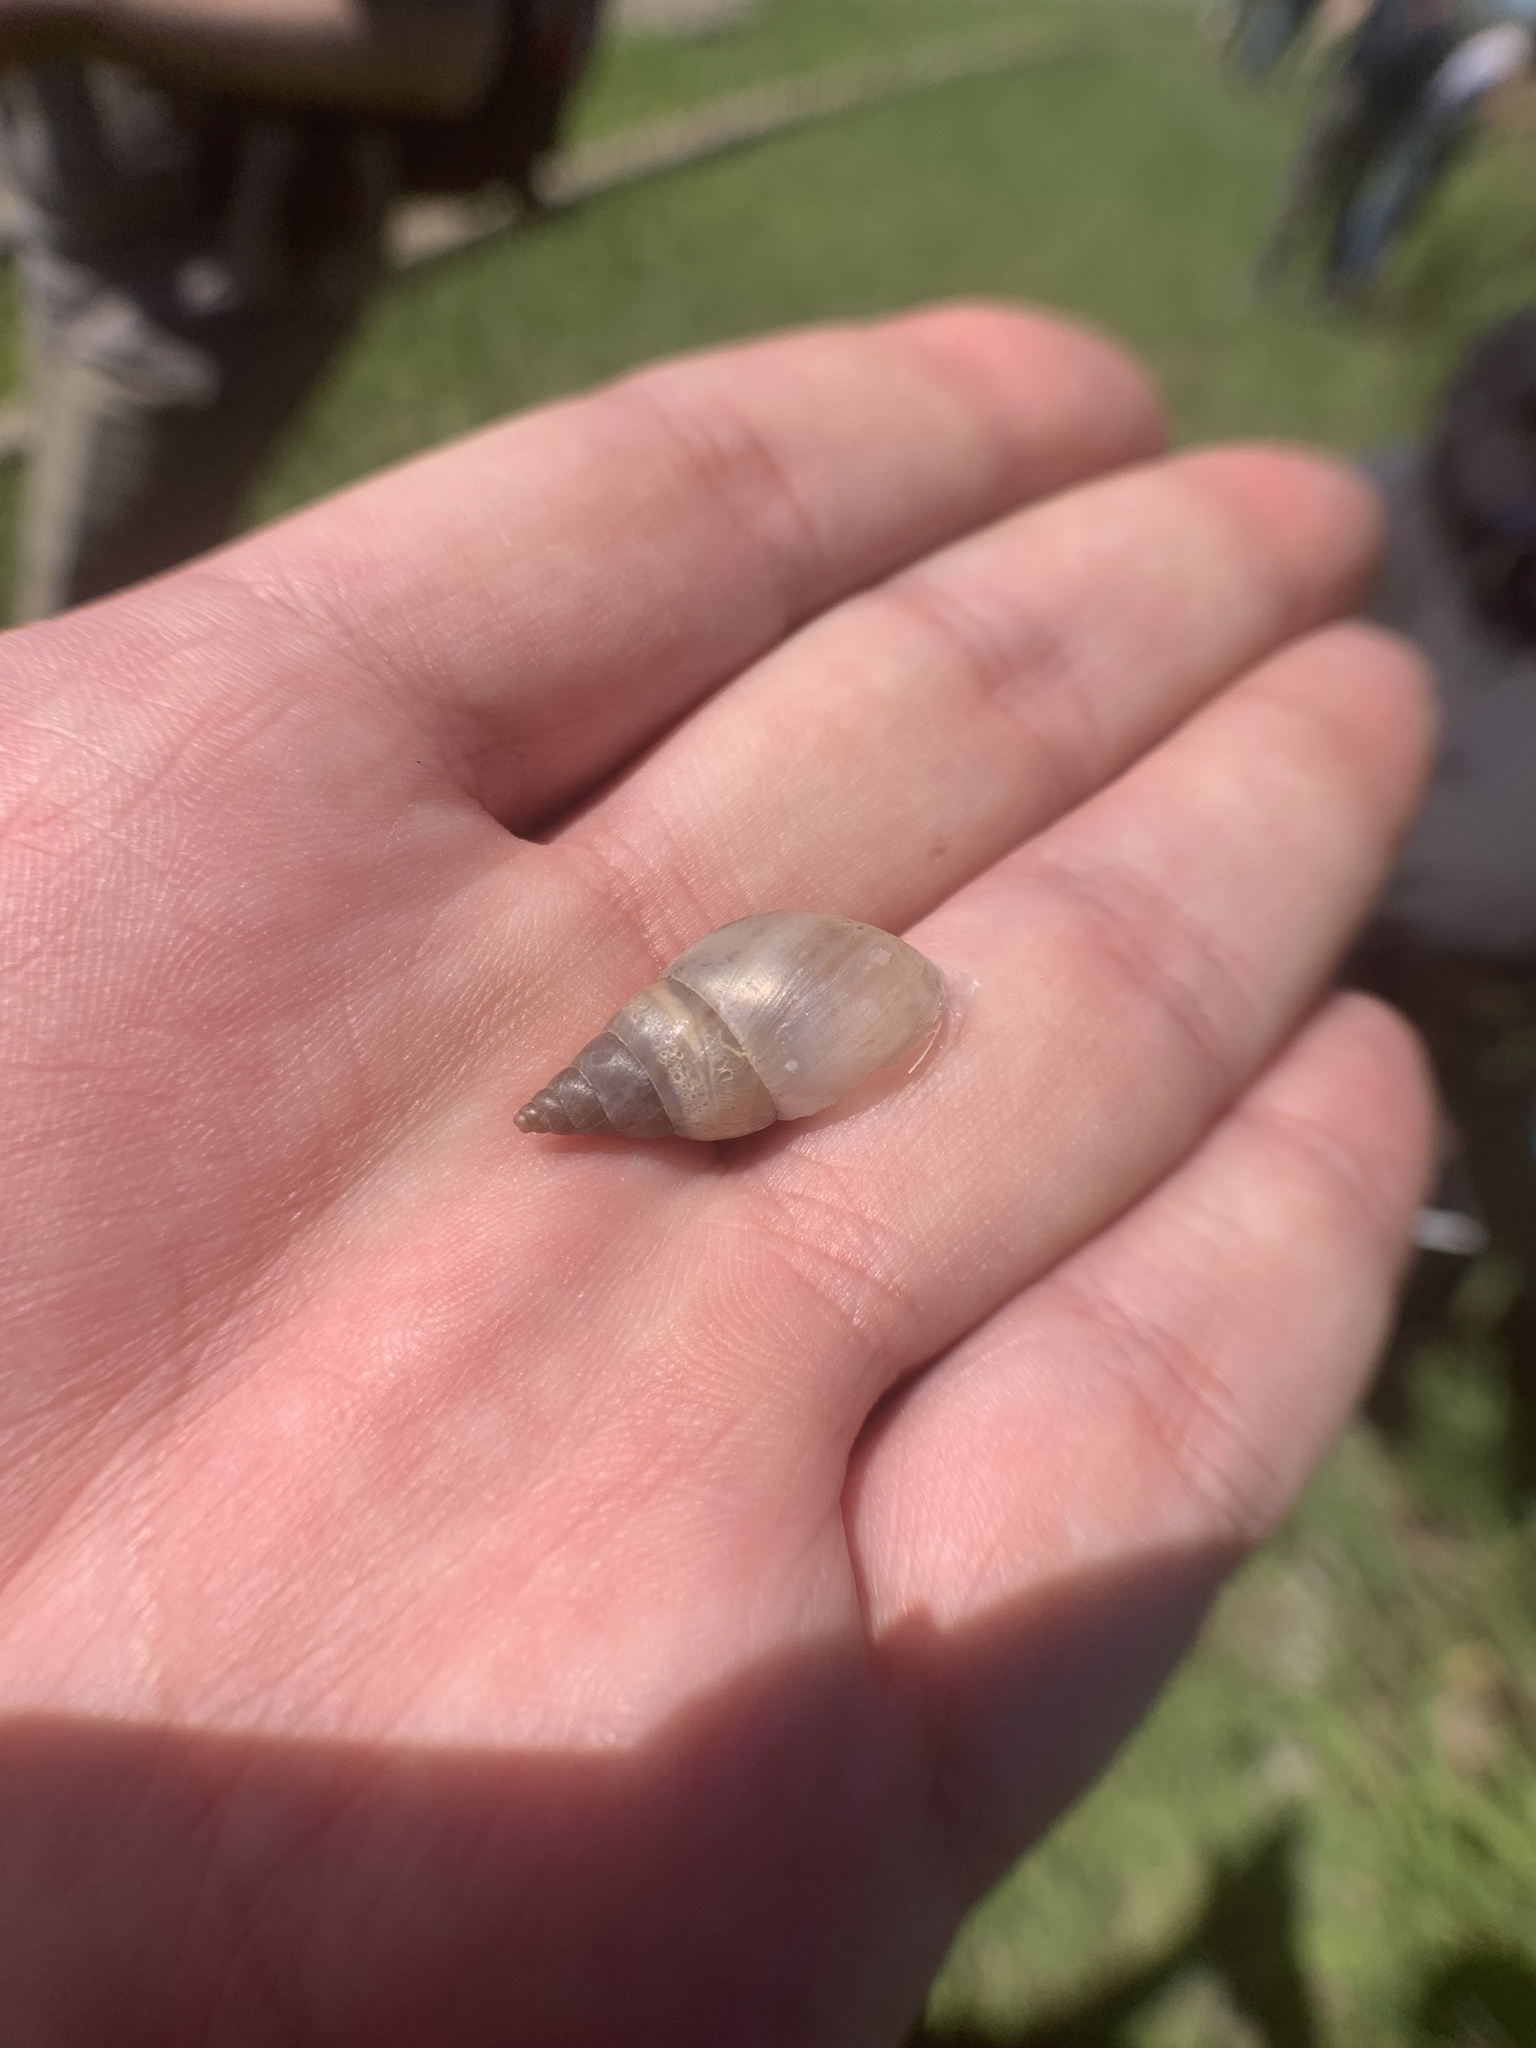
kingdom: Animalia
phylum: Mollusca
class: Gastropoda
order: Stylommatophora
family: Bulimulidae
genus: Bulimulus
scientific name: Bulimulus bonariensis
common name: Snail
